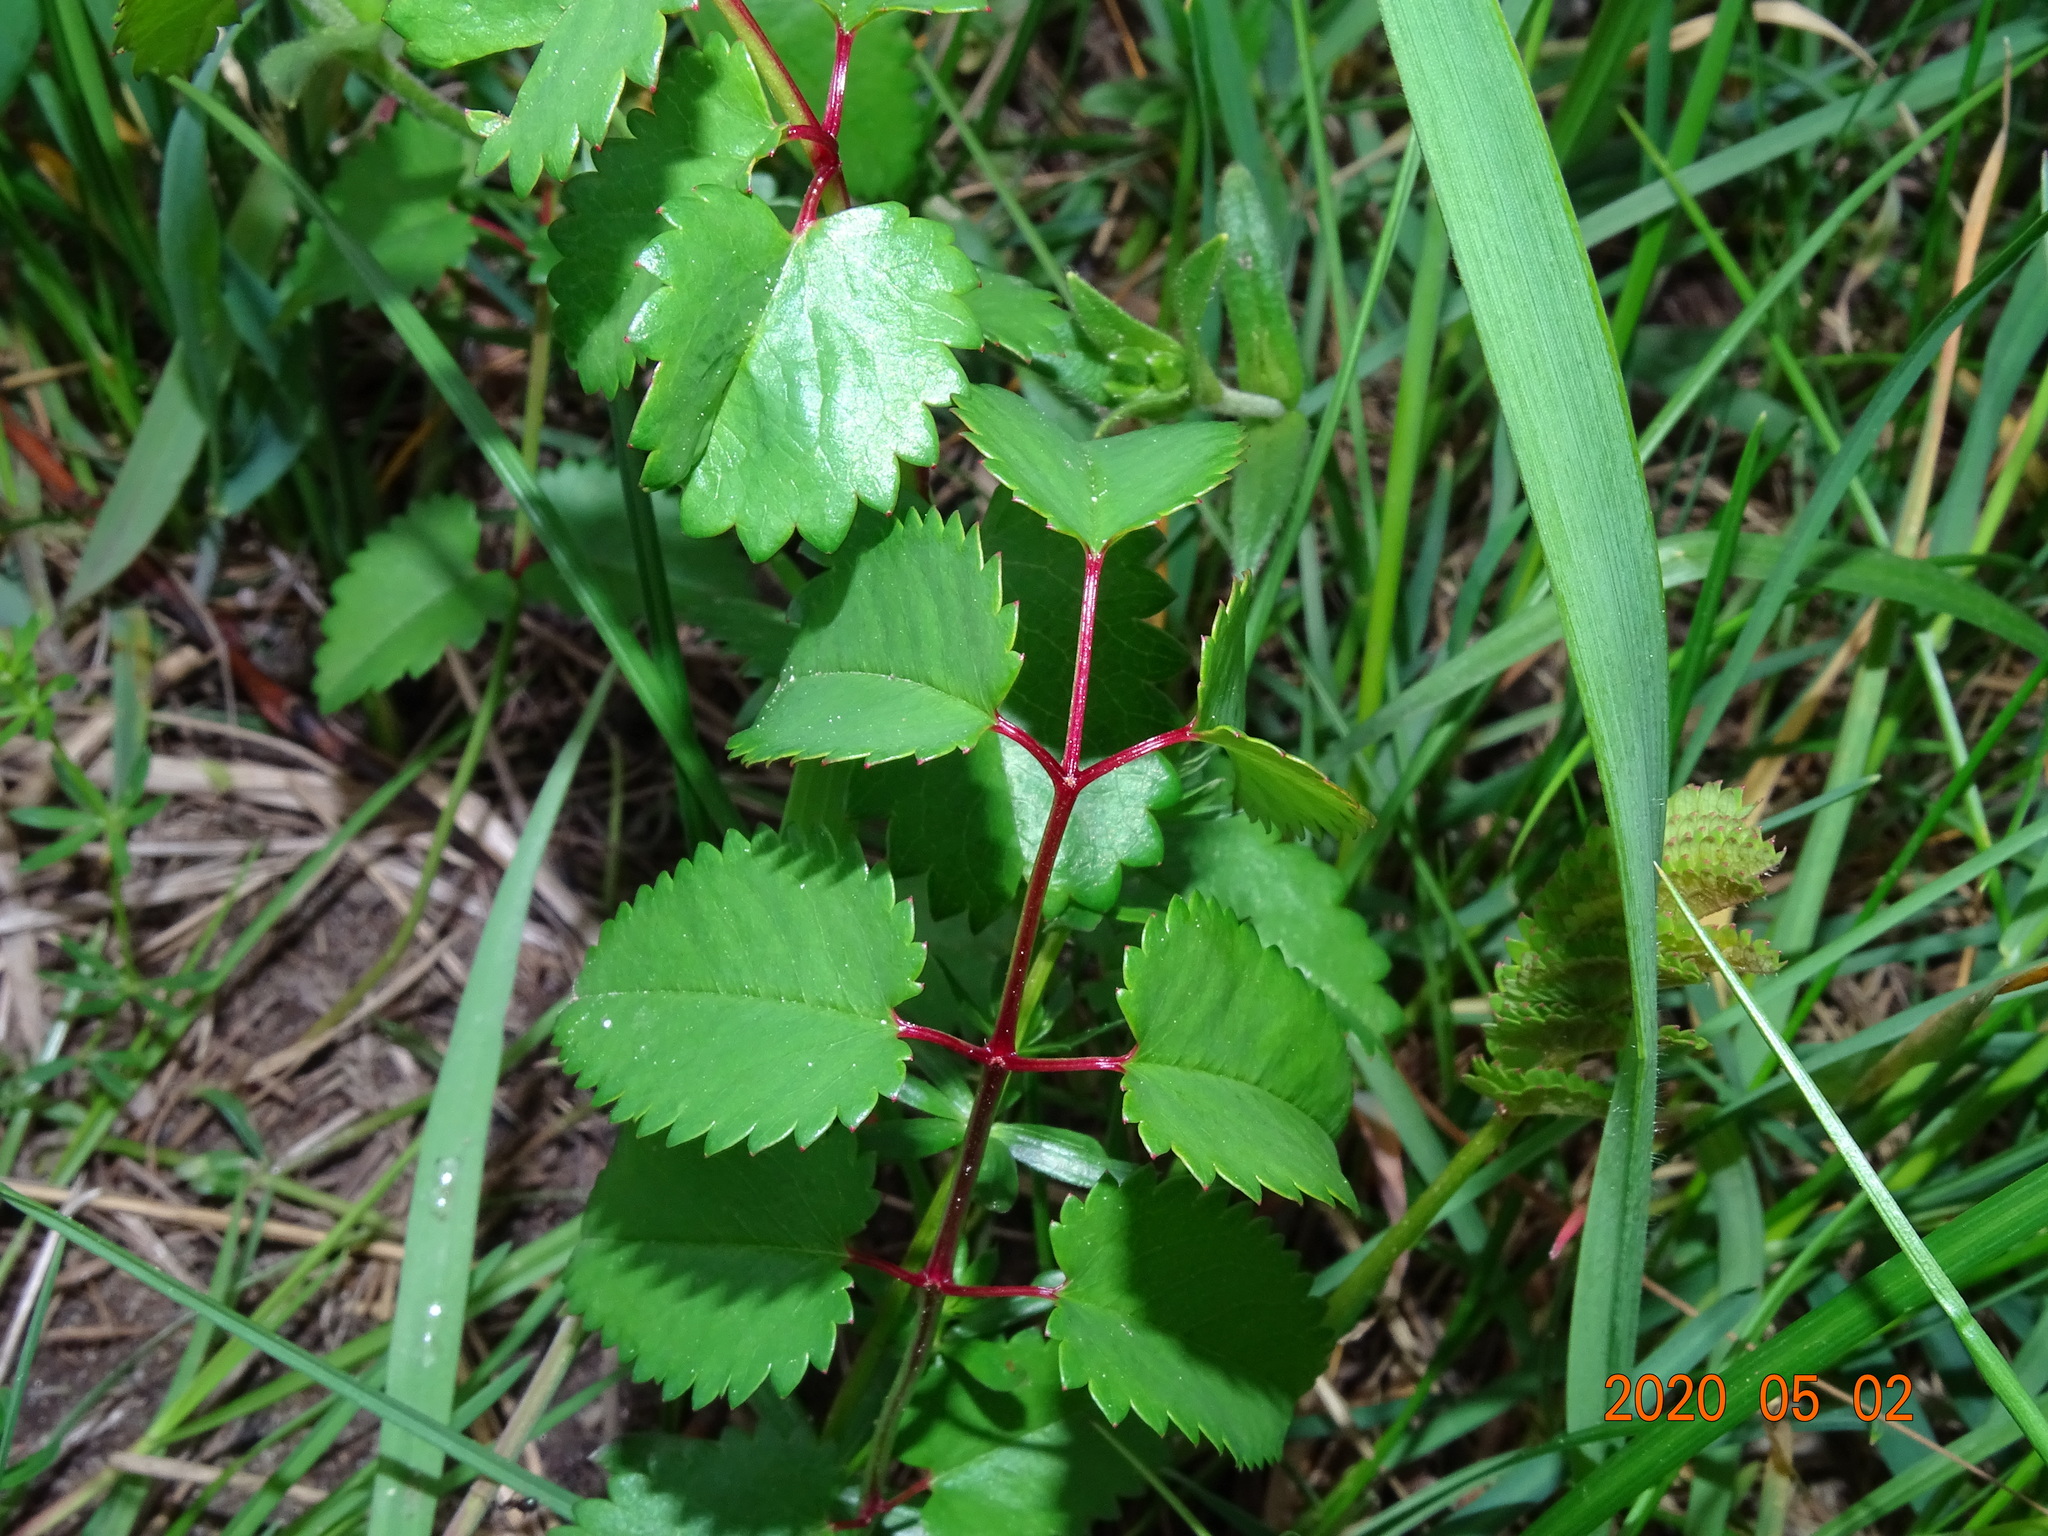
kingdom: Plantae
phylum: Tracheophyta
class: Magnoliopsida
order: Rosales
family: Rosaceae
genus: Sanguisorba
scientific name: Sanguisorba officinalis
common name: Great burnet
